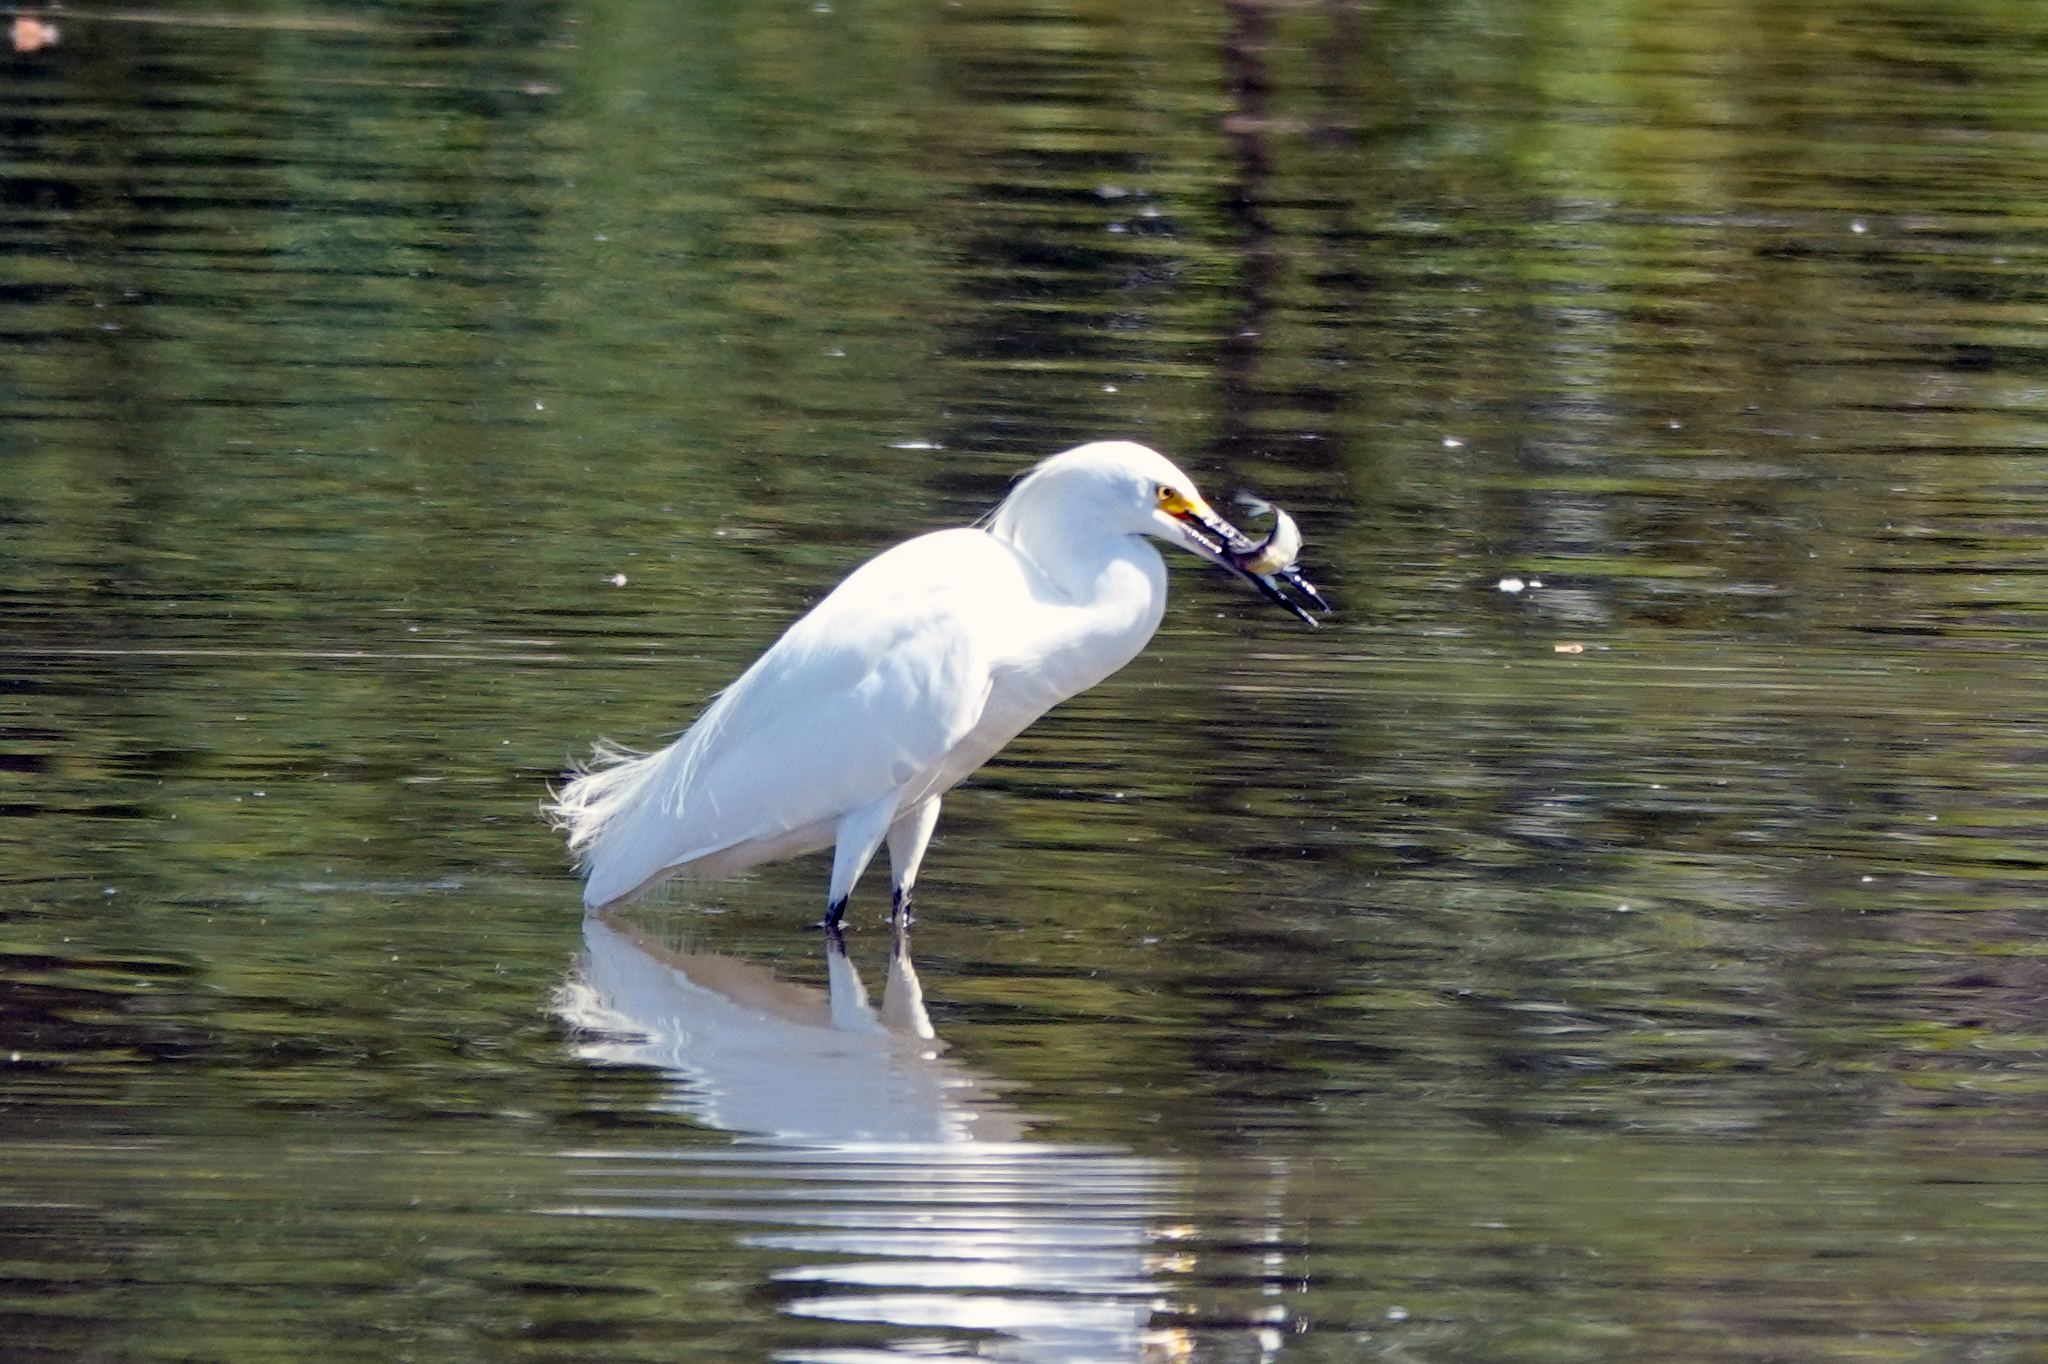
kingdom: Animalia
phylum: Chordata
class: Aves
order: Pelecaniformes
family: Ardeidae
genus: Egretta
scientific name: Egretta thula
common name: Snowy egret
